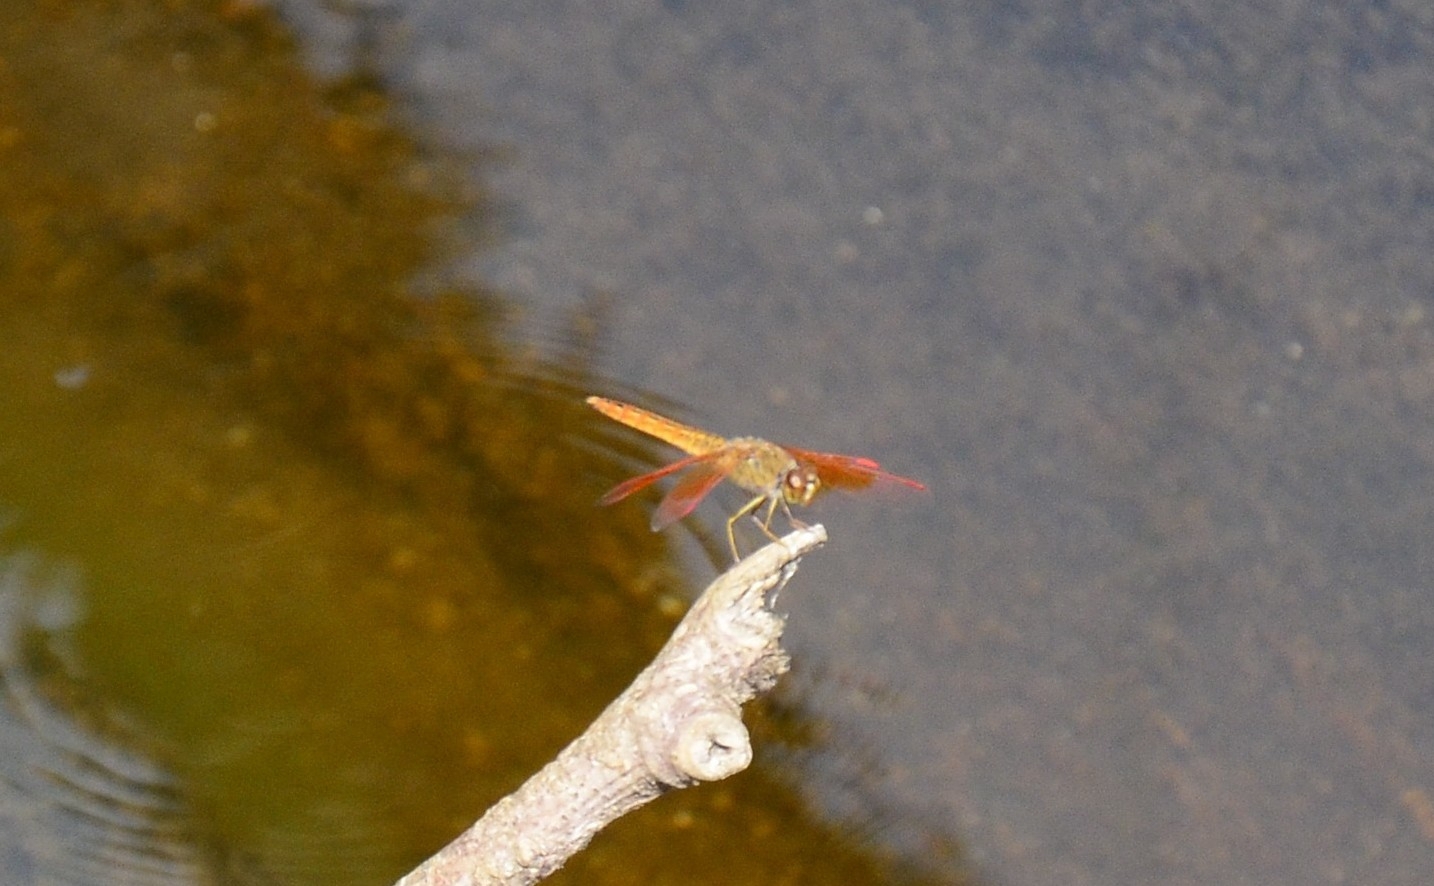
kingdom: Animalia
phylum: Arthropoda
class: Insecta
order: Odonata
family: Libellulidae
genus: Brachythemis
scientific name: Brachythemis contaminata
